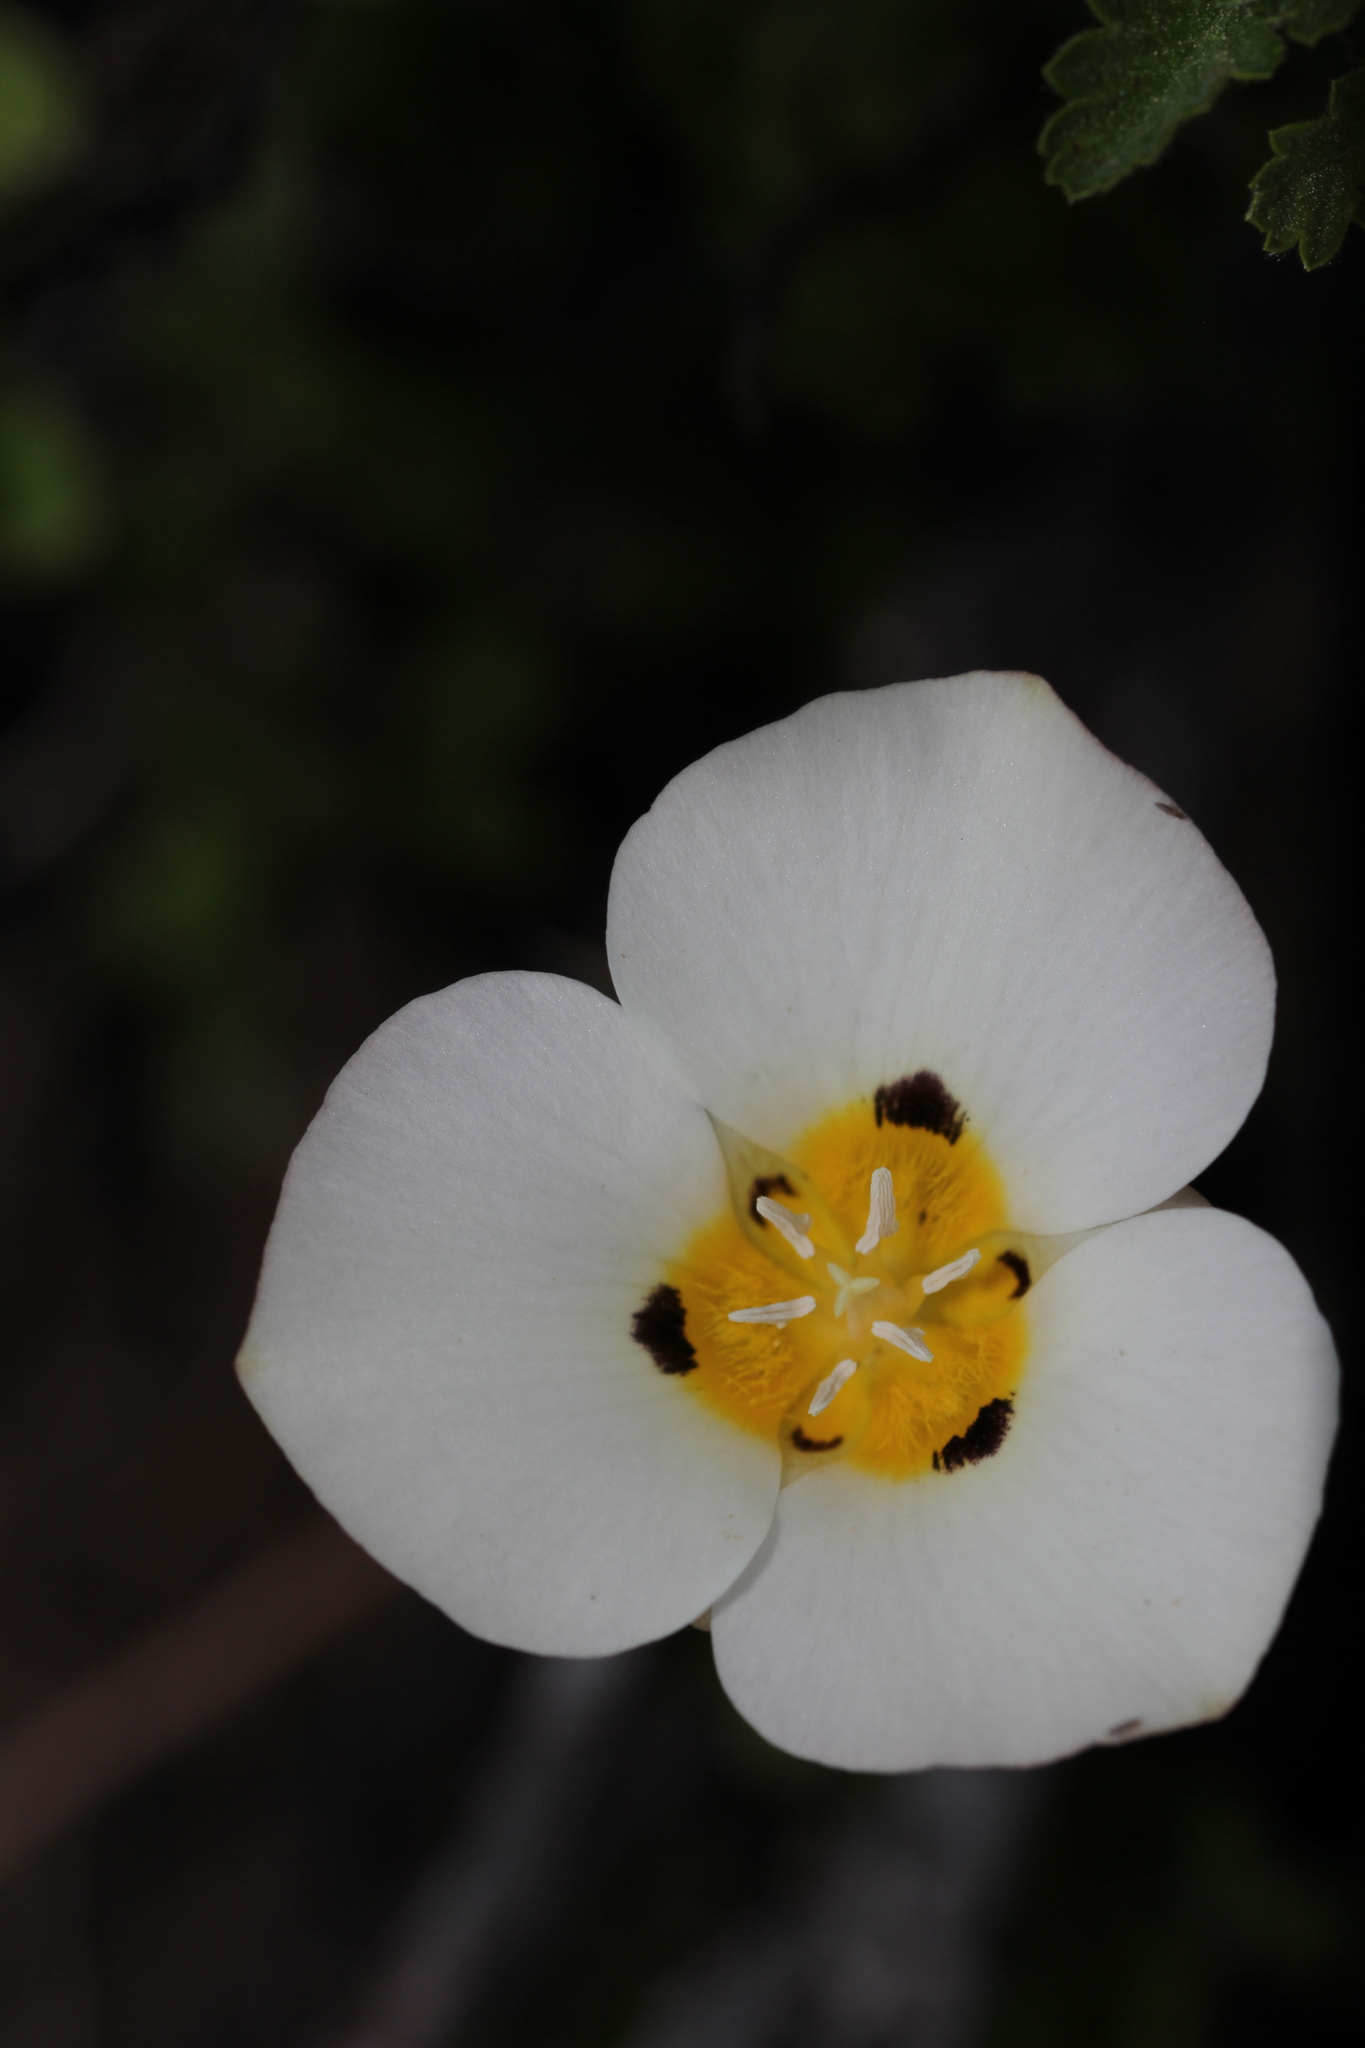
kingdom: Plantae
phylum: Tracheophyta
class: Liliopsida
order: Liliales
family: Liliaceae
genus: Calochortus
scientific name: Calochortus leichtlinii
